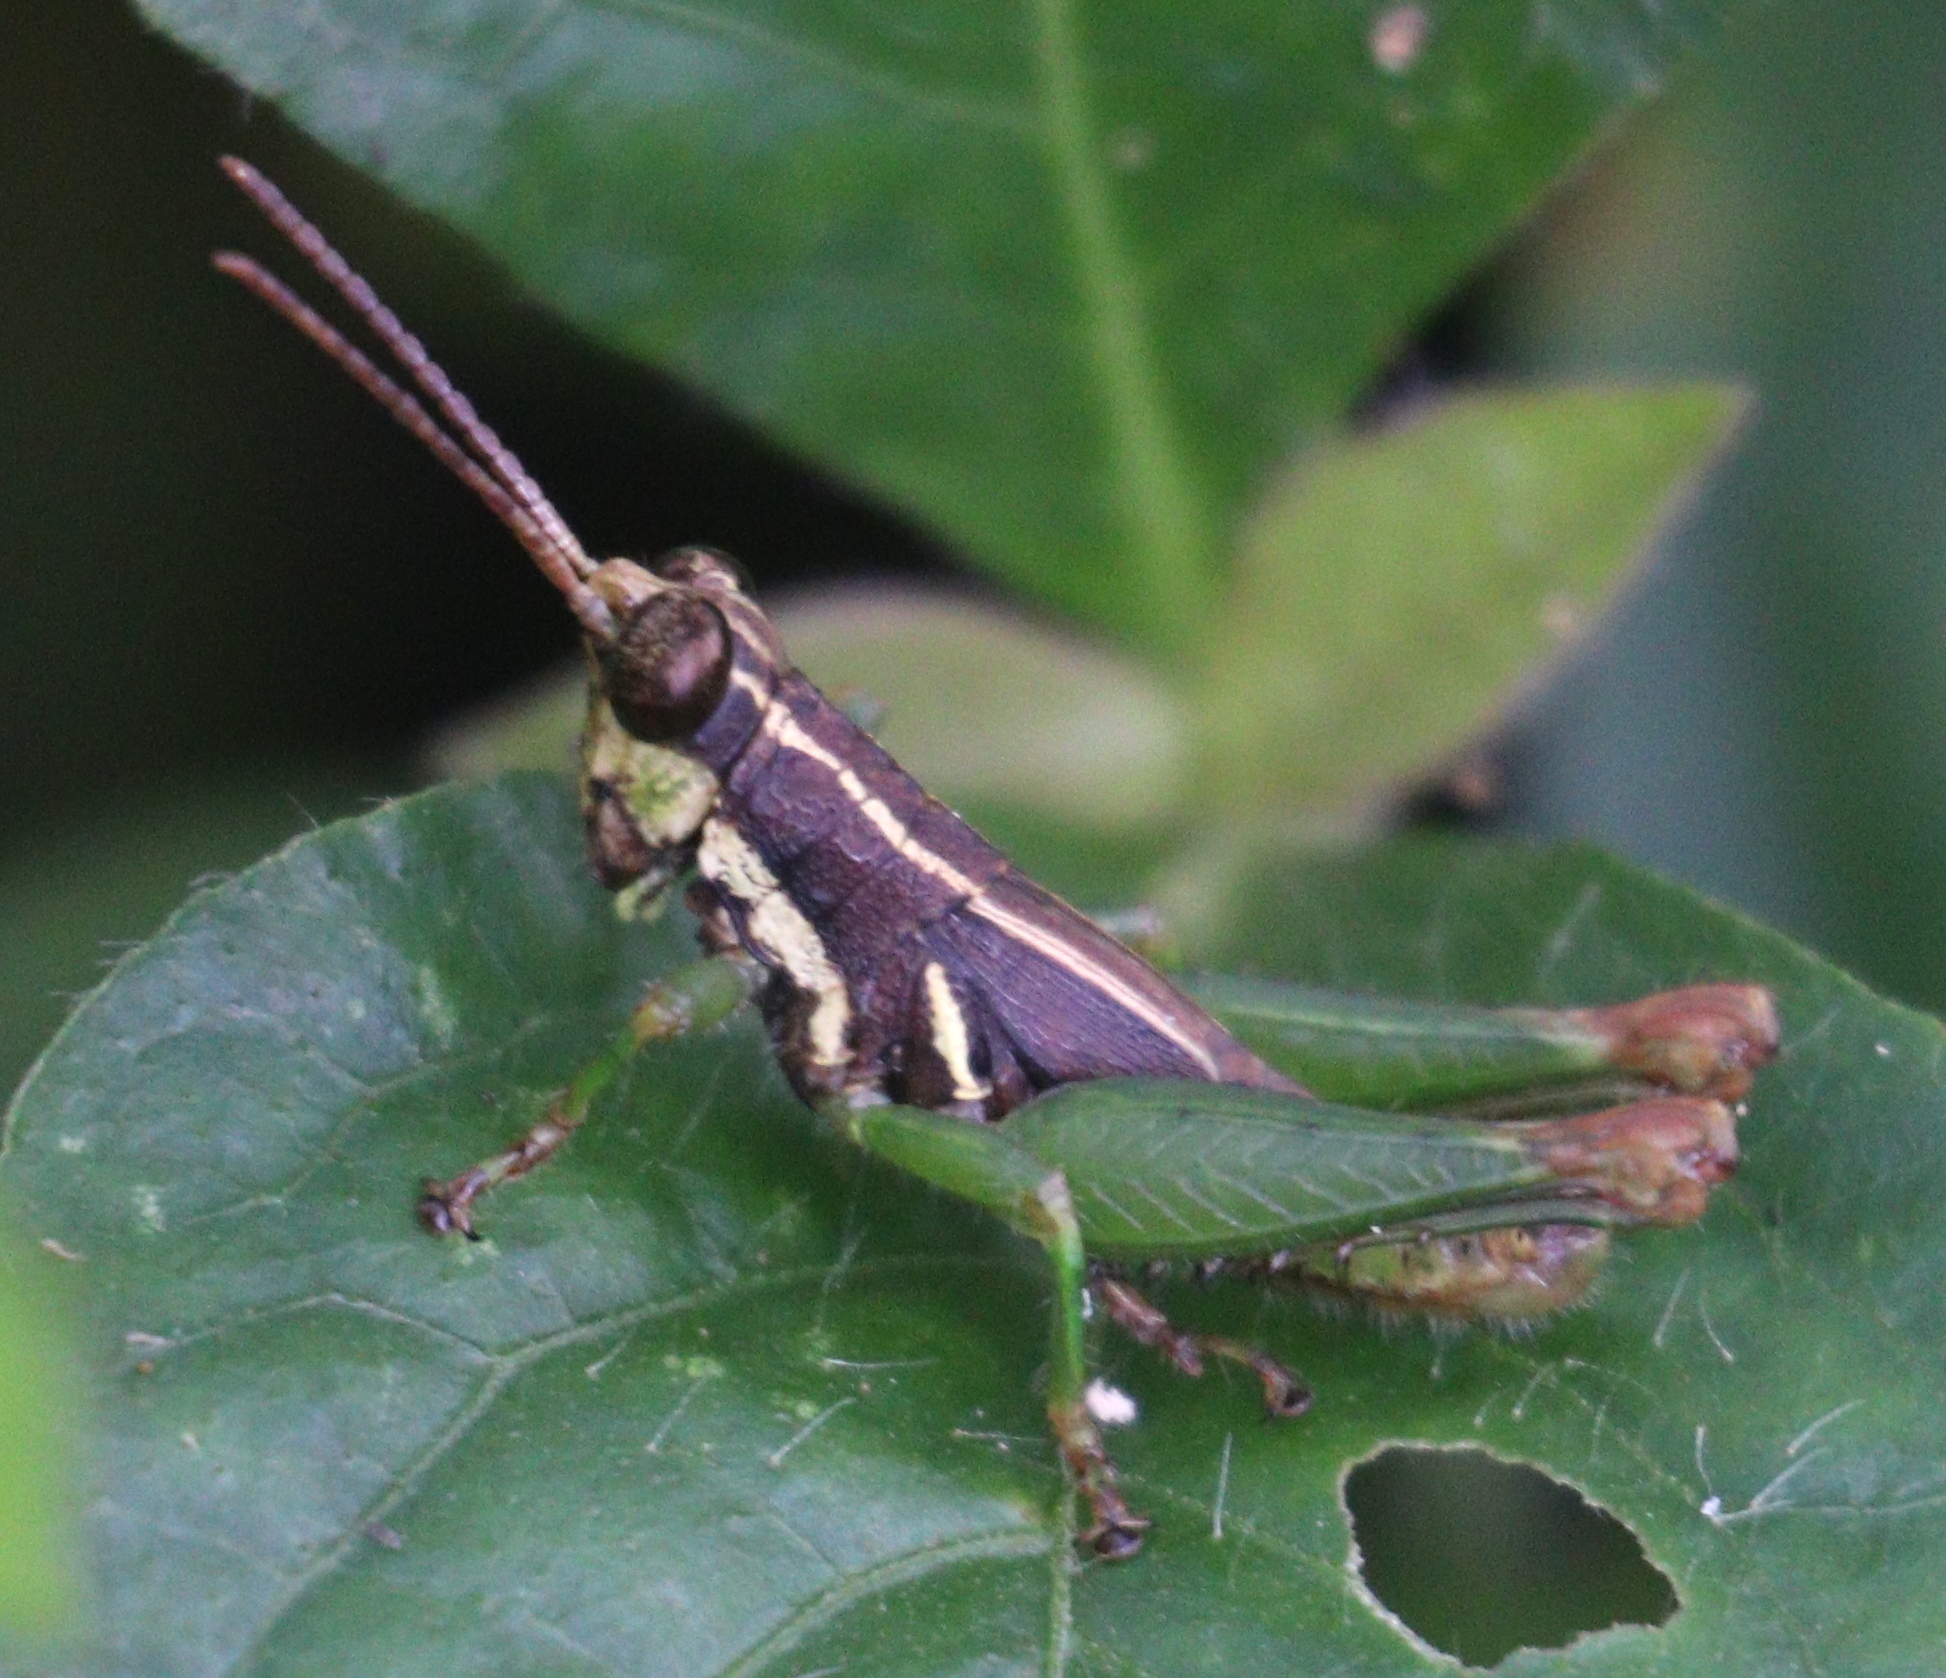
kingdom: Animalia
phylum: Arthropoda
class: Insecta
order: Orthoptera
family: Acrididae
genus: Leptomerinthoprora
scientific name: Leptomerinthoprora brevipennis
